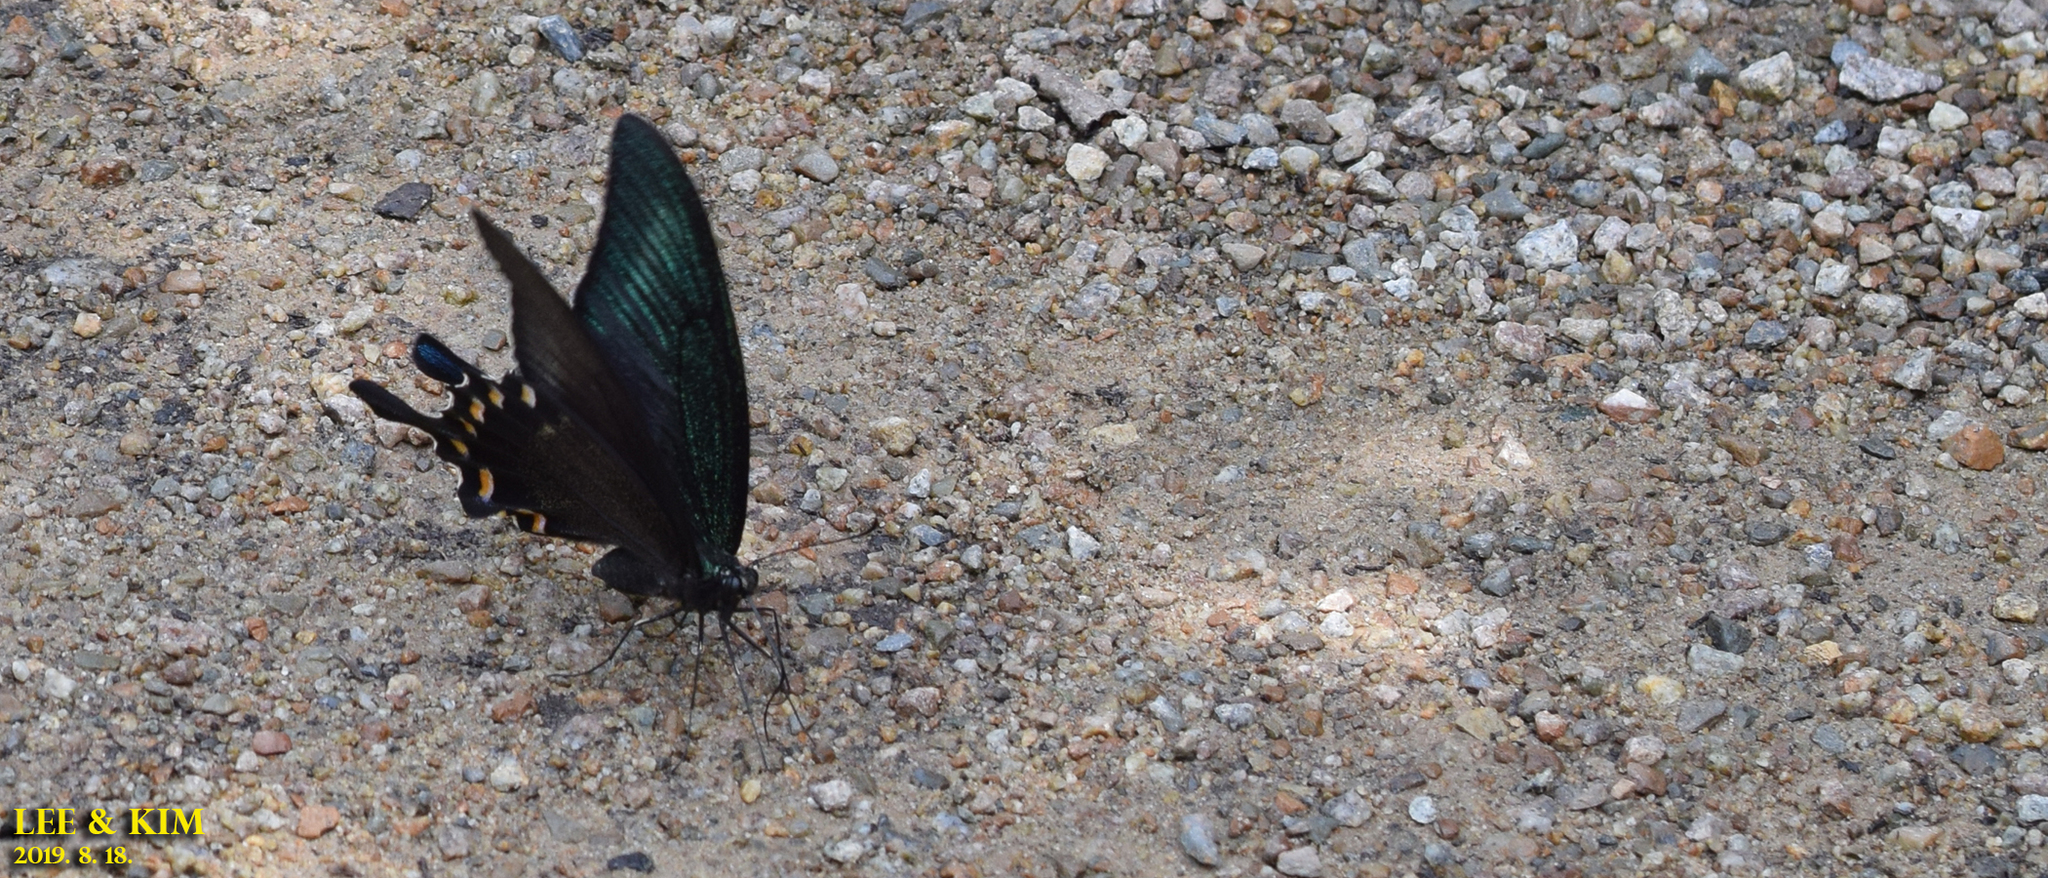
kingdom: Animalia
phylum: Arthropoda
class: Insecta
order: Lepidoptera
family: Papilionidae
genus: Papilio
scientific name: Papilio maackii
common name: Alpine black swallowtail
